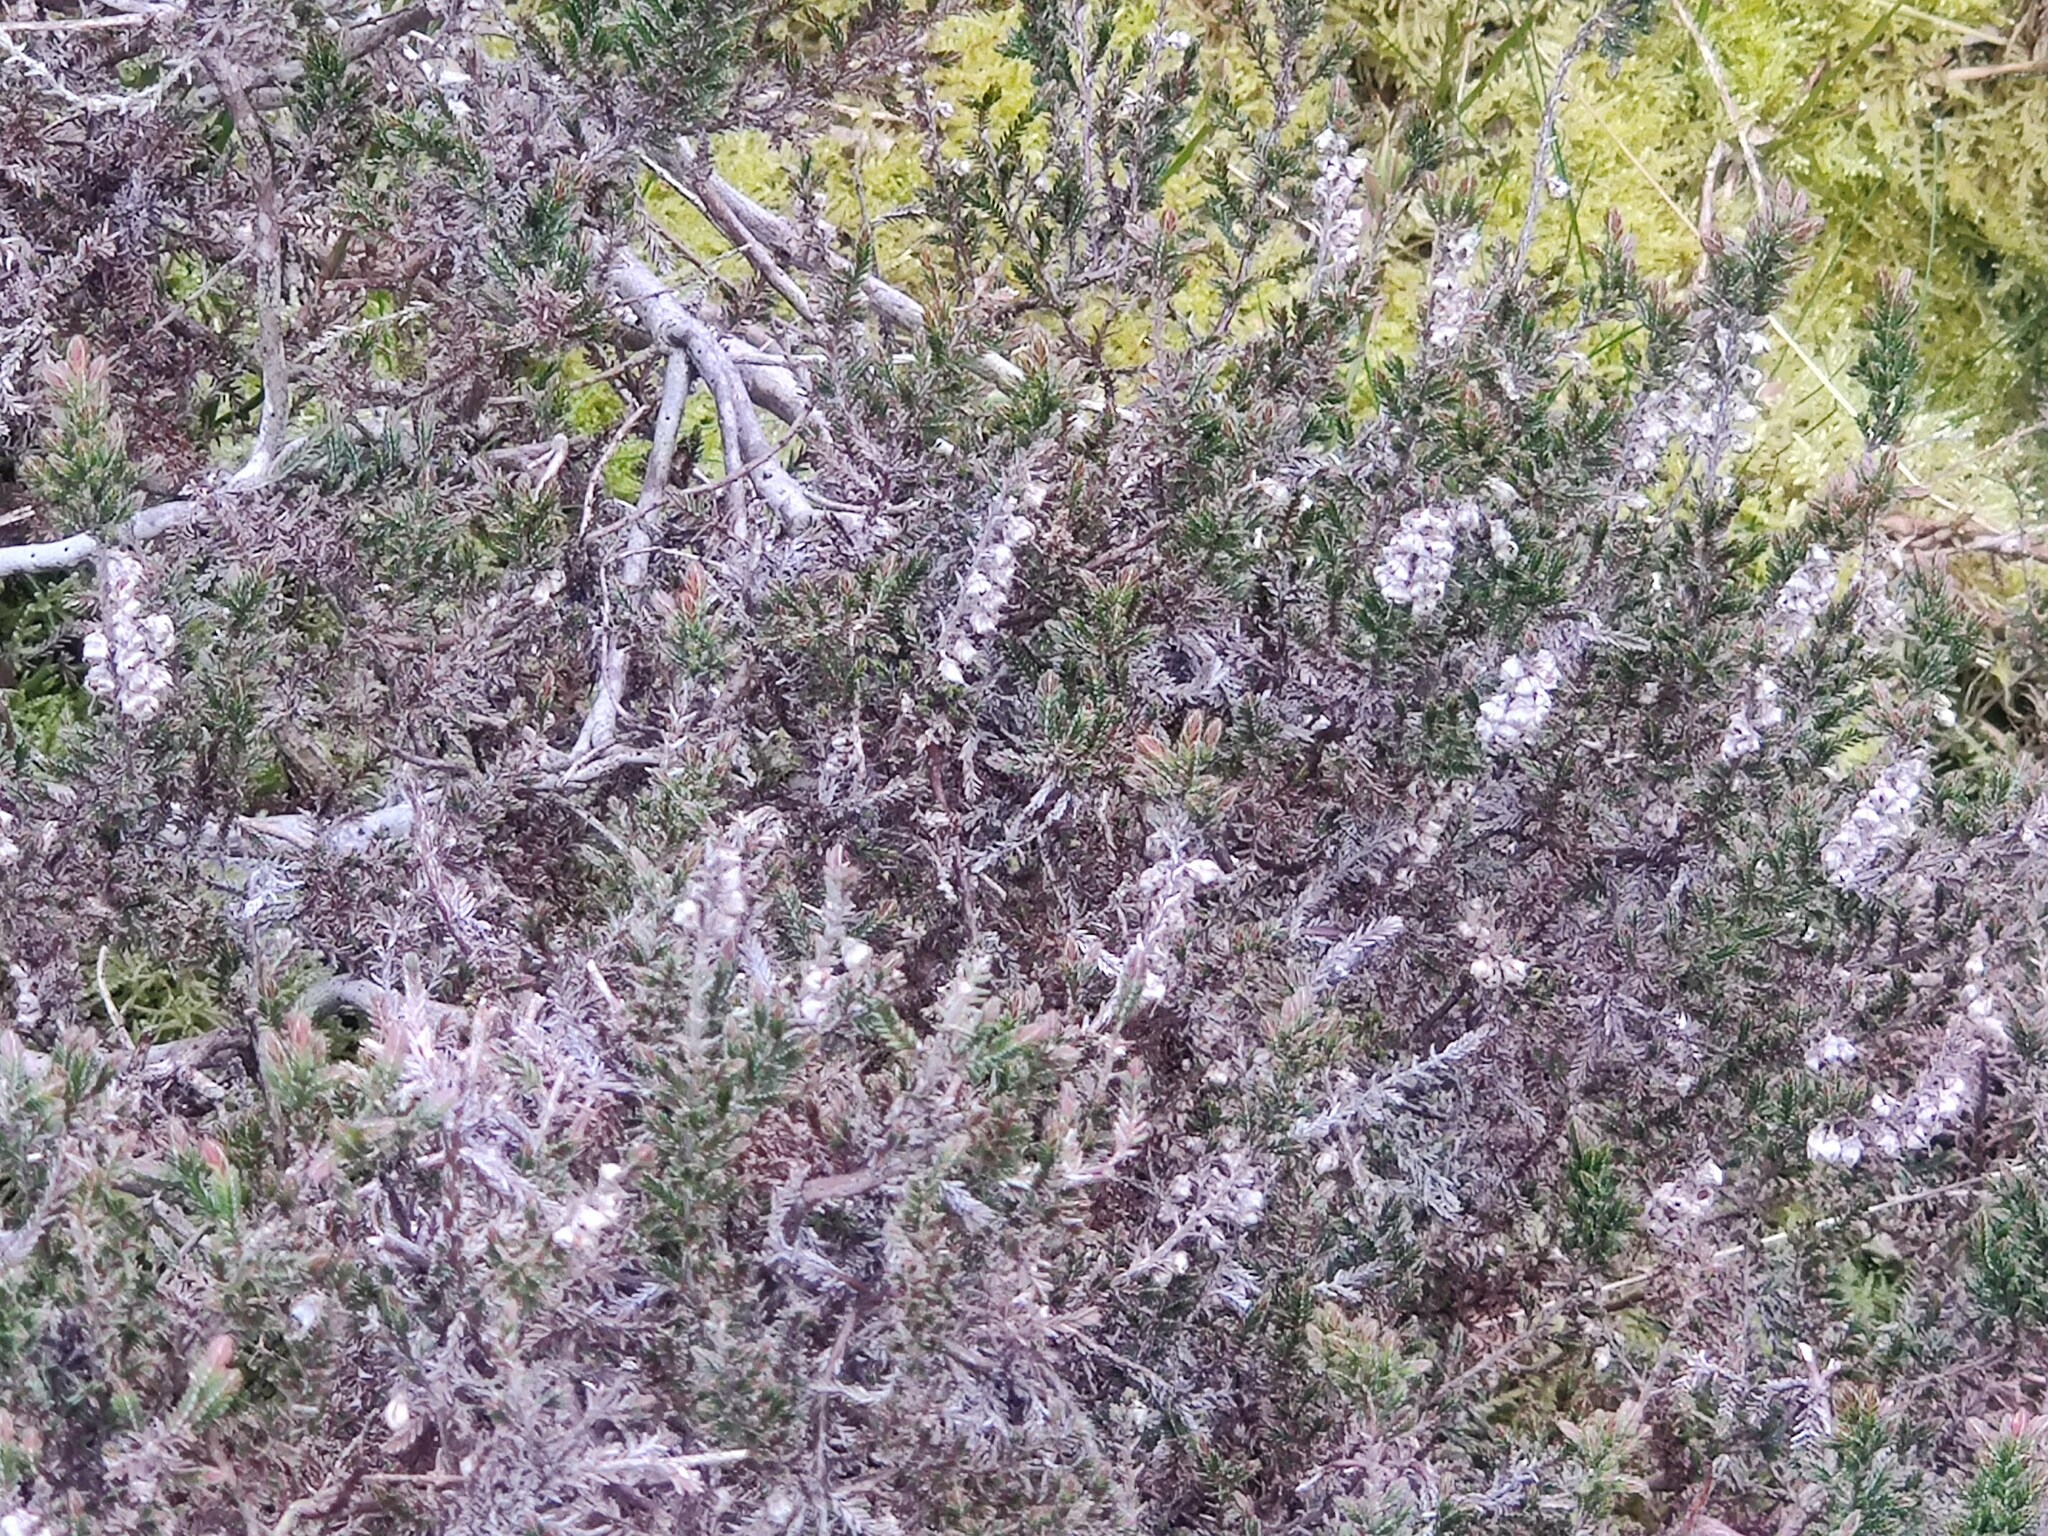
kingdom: Plantae
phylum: Tracheophyta
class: Magnoliopsida
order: Ericales
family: Ericaceae
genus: Calluna
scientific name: Calluna vulgaris
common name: Heather
